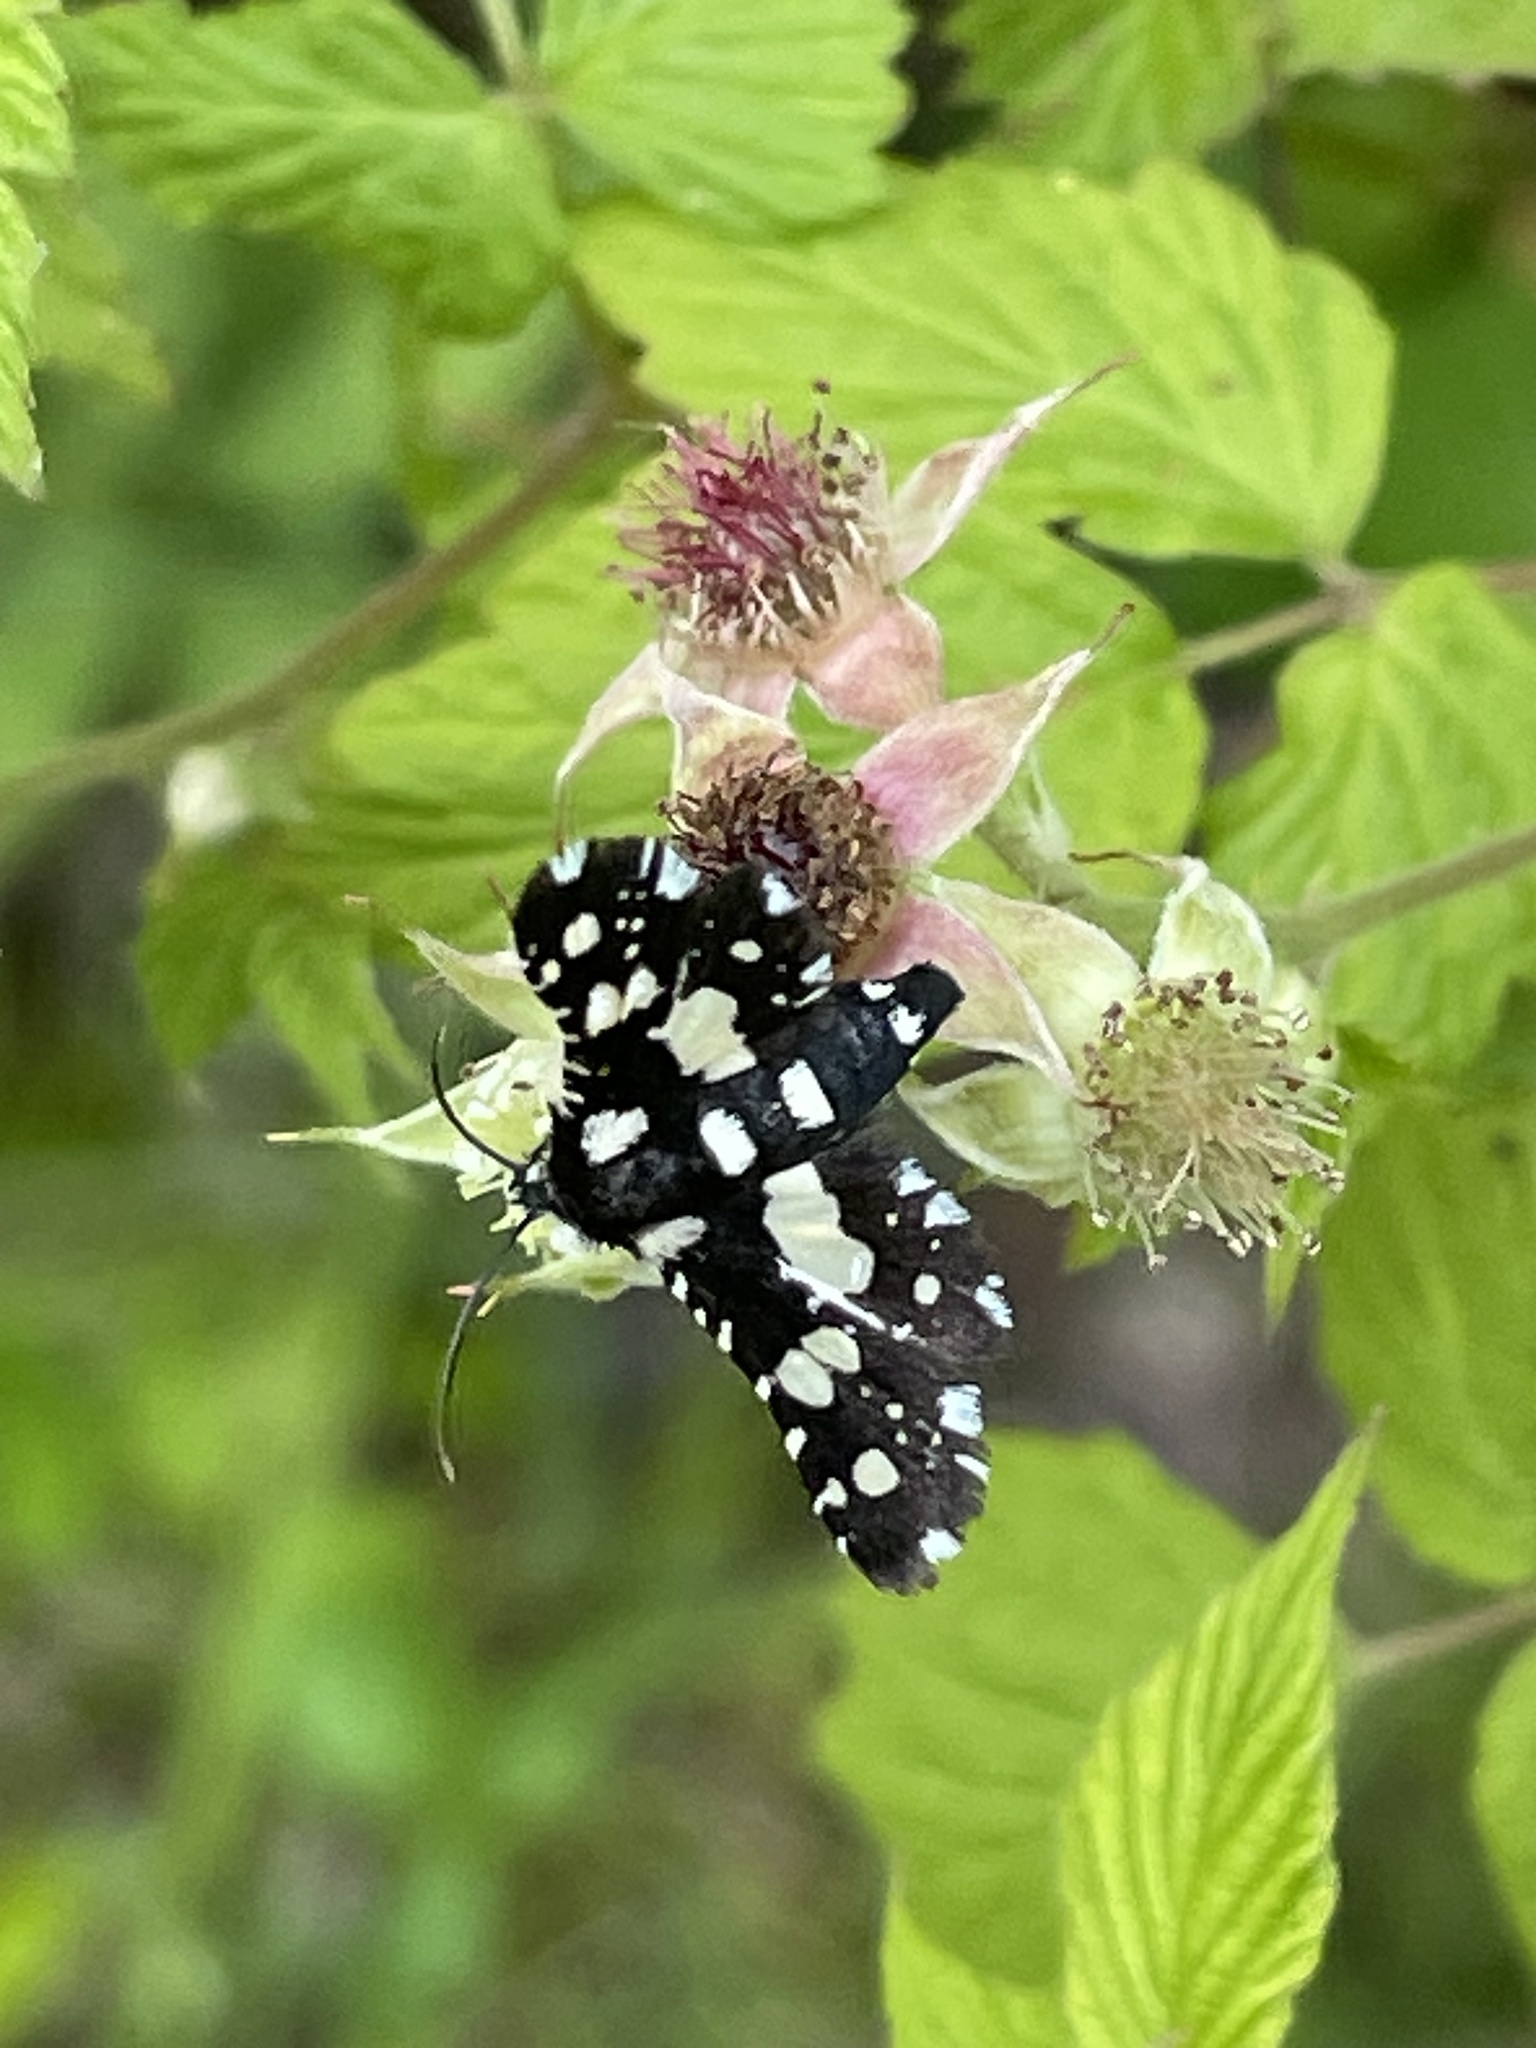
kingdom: Animalia
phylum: Arthropoda
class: Insecta
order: Lepidoptera
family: Thyrididae
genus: Pseudothyris
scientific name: Pseudothyris sepulchralis
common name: Mournful thyris moth
